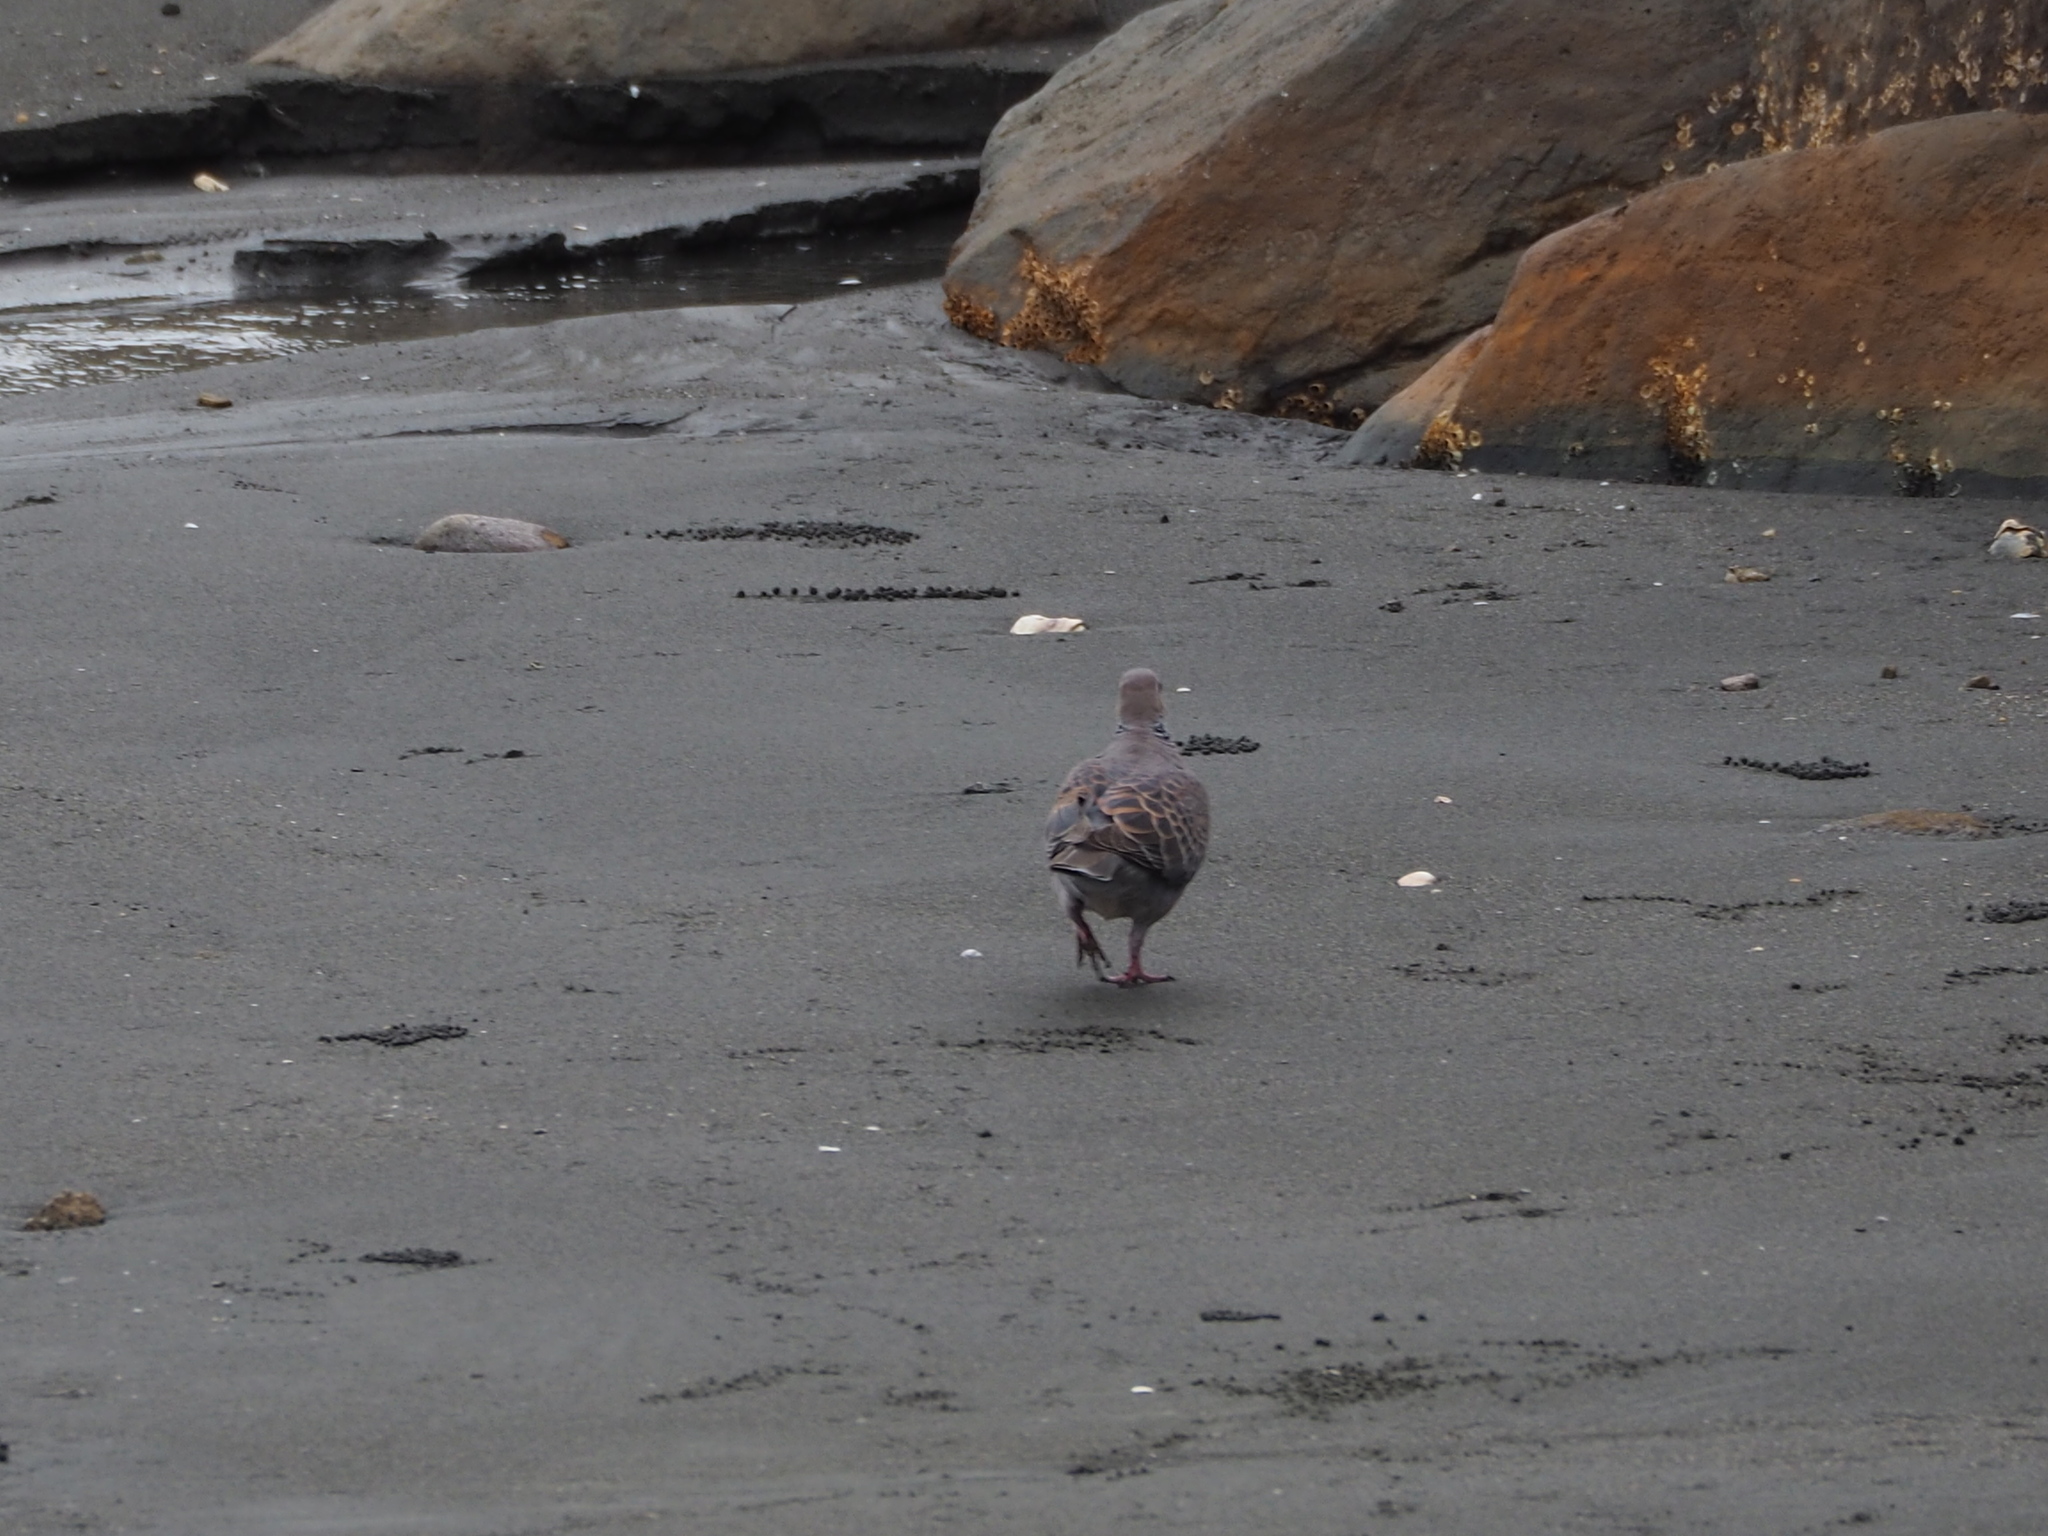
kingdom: Animalia
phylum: Chordata
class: Aves
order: Columbiformes
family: Columbidae
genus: Streptopelia
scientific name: Streptopelia orientalis
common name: Oriental turtle dove
